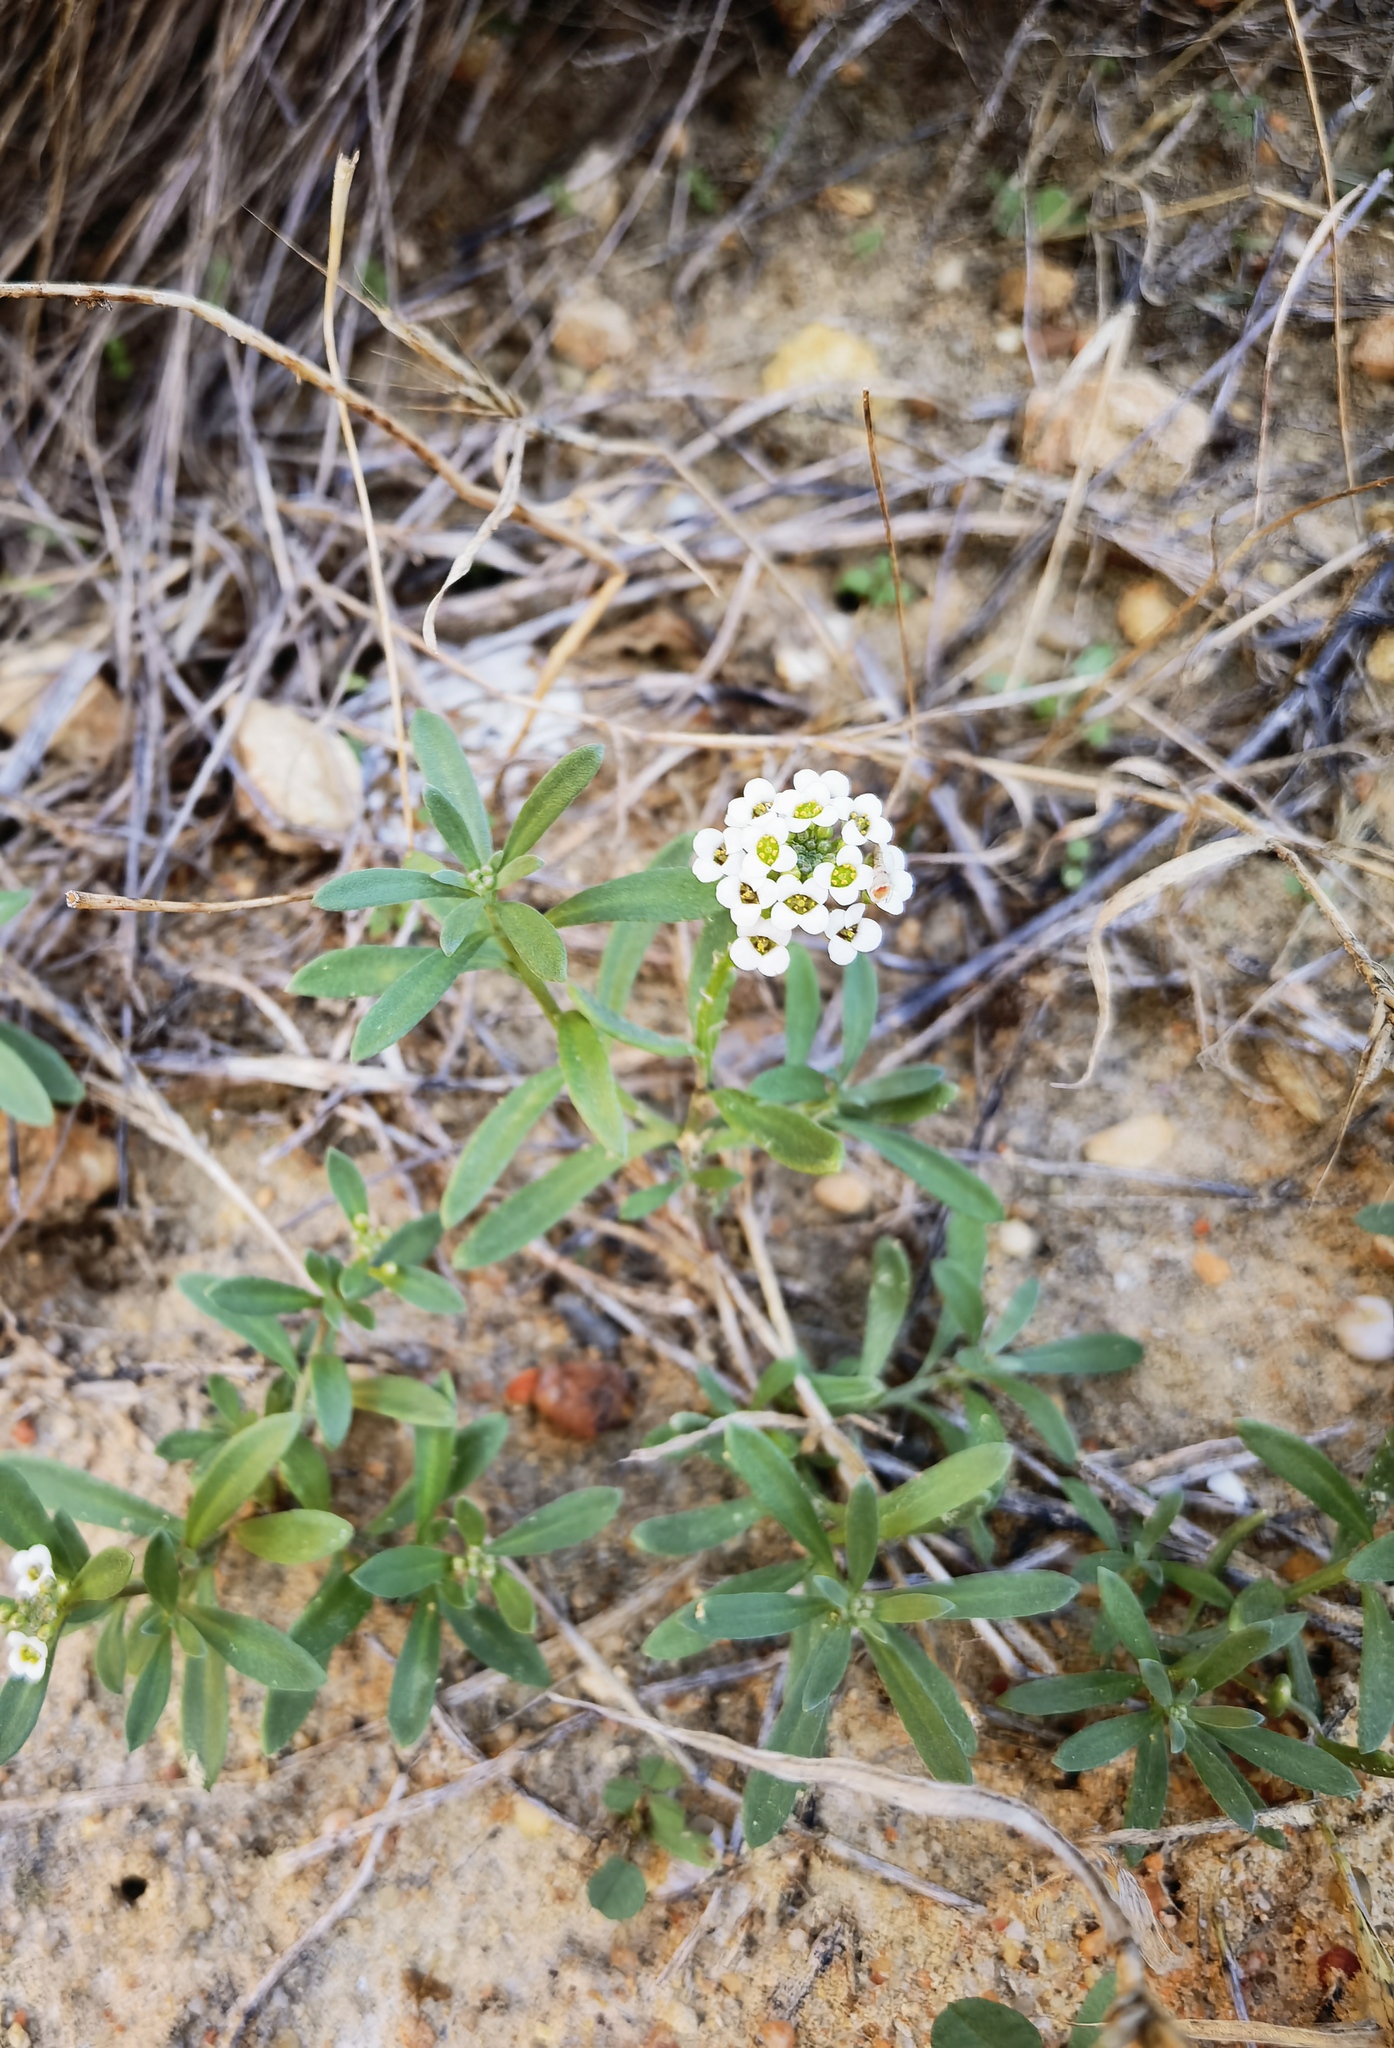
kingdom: Plantae
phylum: Tracheophyta
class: Magnoliopsida
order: Brassicales
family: Brassicaceae
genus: Lobularia
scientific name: Lobularia maritima
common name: Sweet alison
